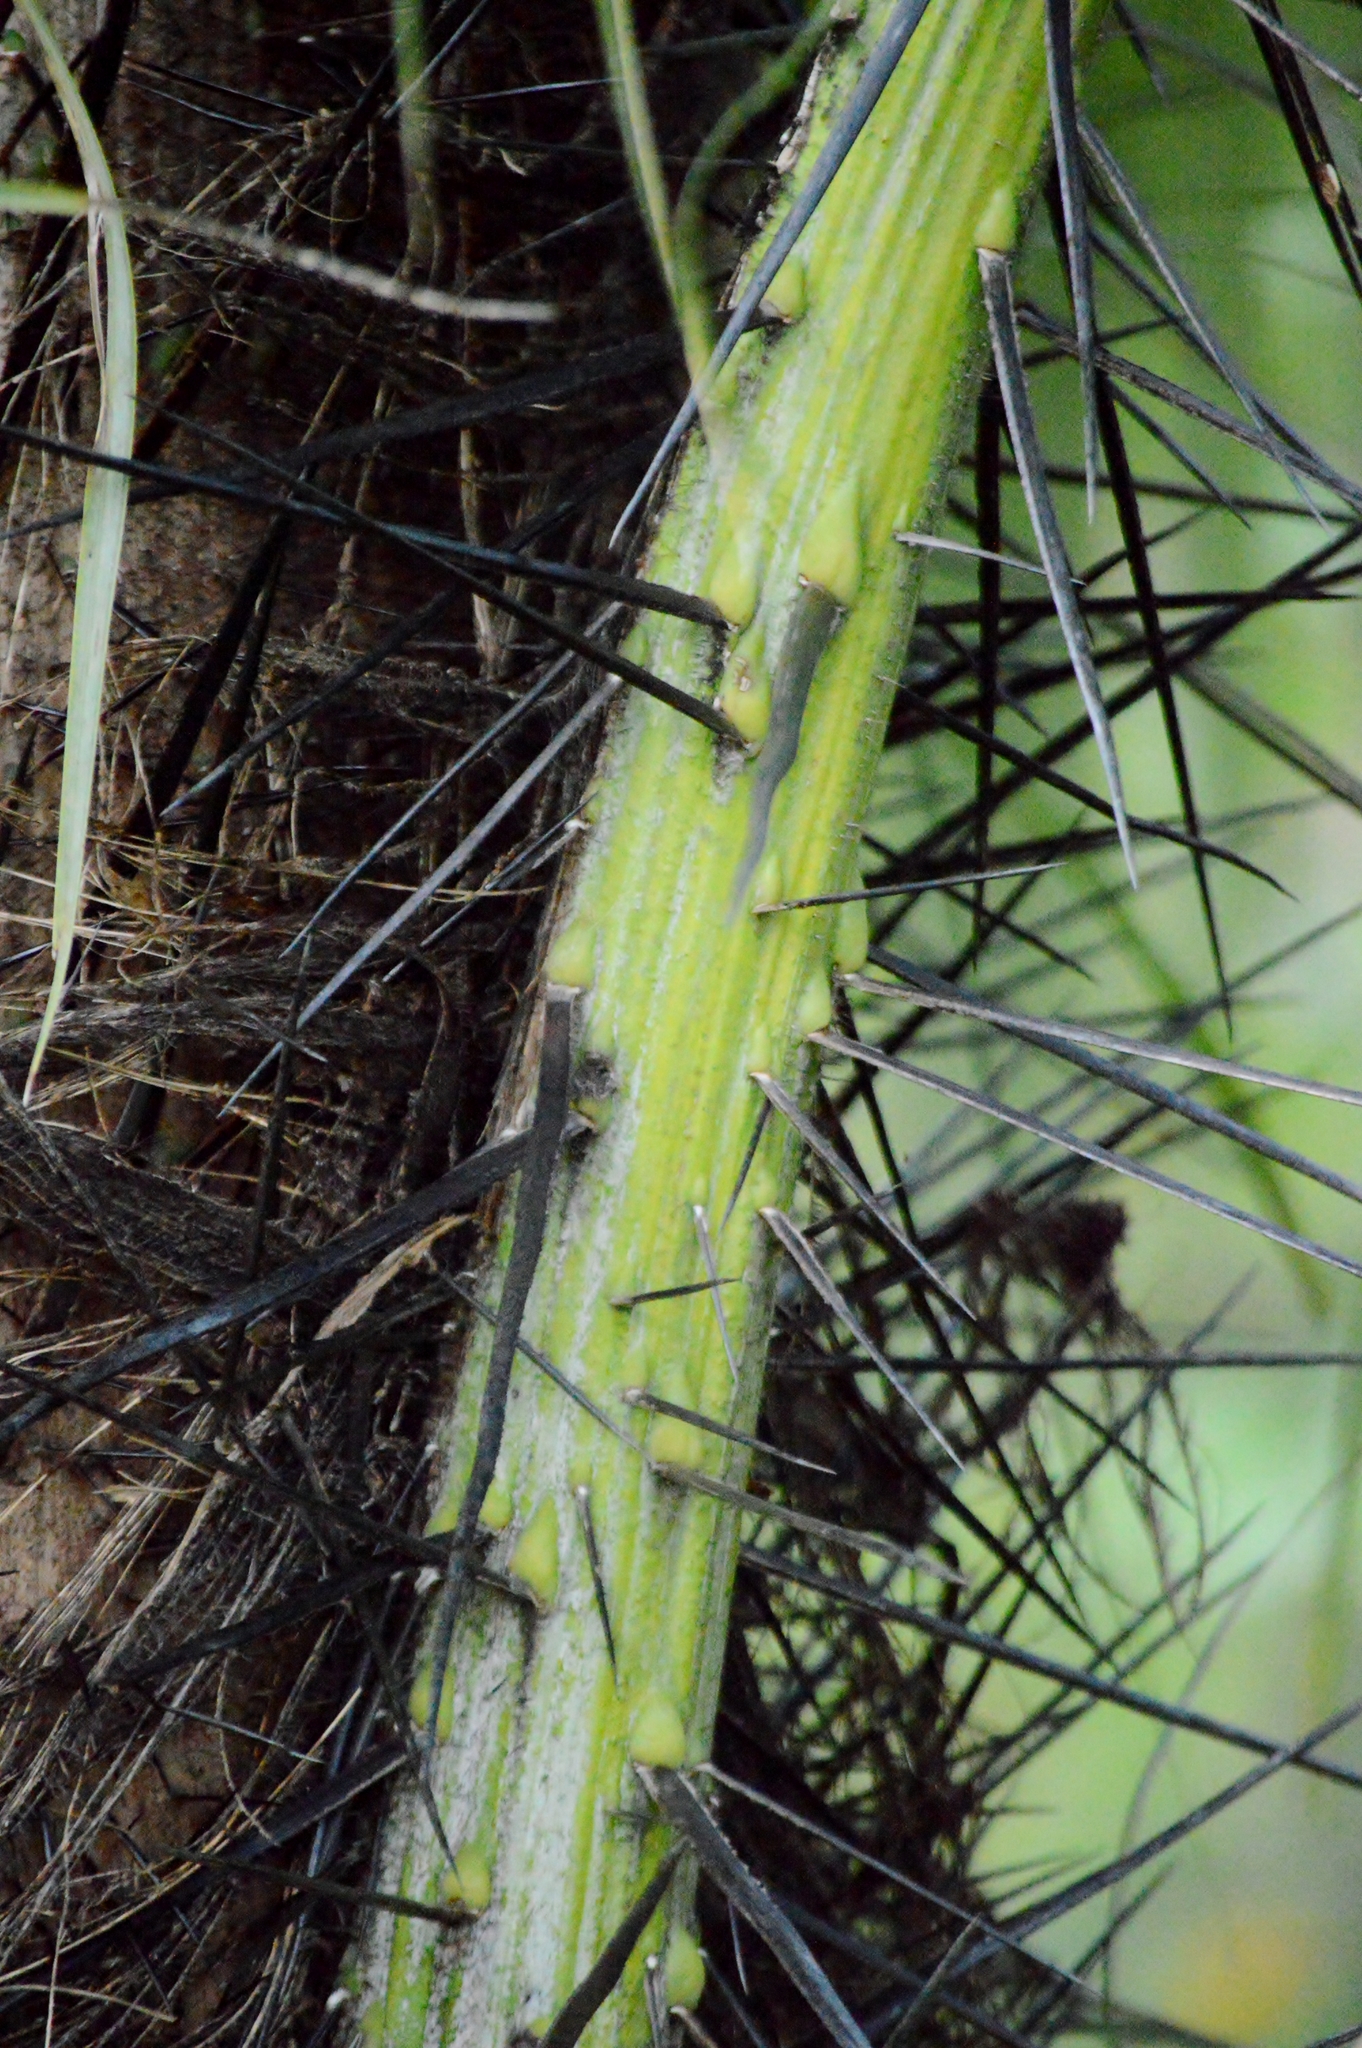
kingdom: Plantae
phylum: Tracheophyta
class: Liliopsida
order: Arecales
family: Arecaceae
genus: Acrocomia
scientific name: Acrocomia aculeata
